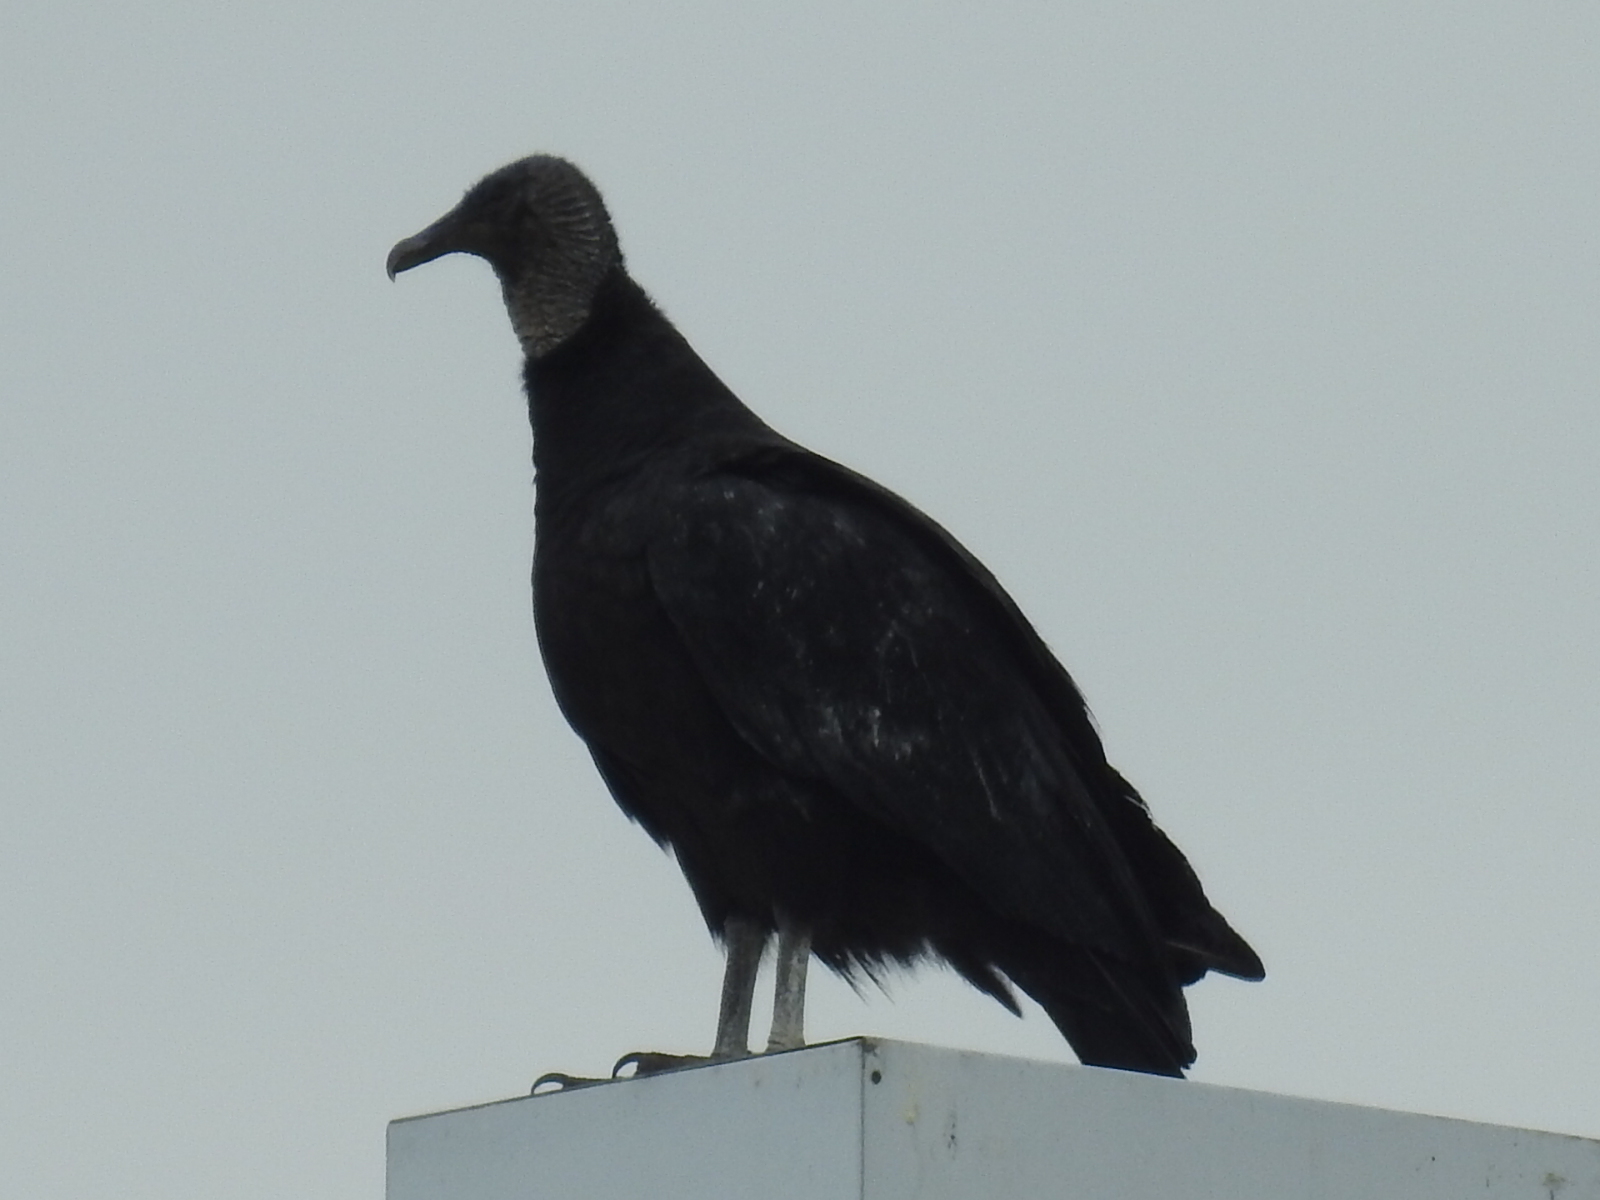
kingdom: Animalia
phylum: Chordata
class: Aves
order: Accipitriformes
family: Cathartidae
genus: Coragyps
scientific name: Coragyps atratus
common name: Black vulture
